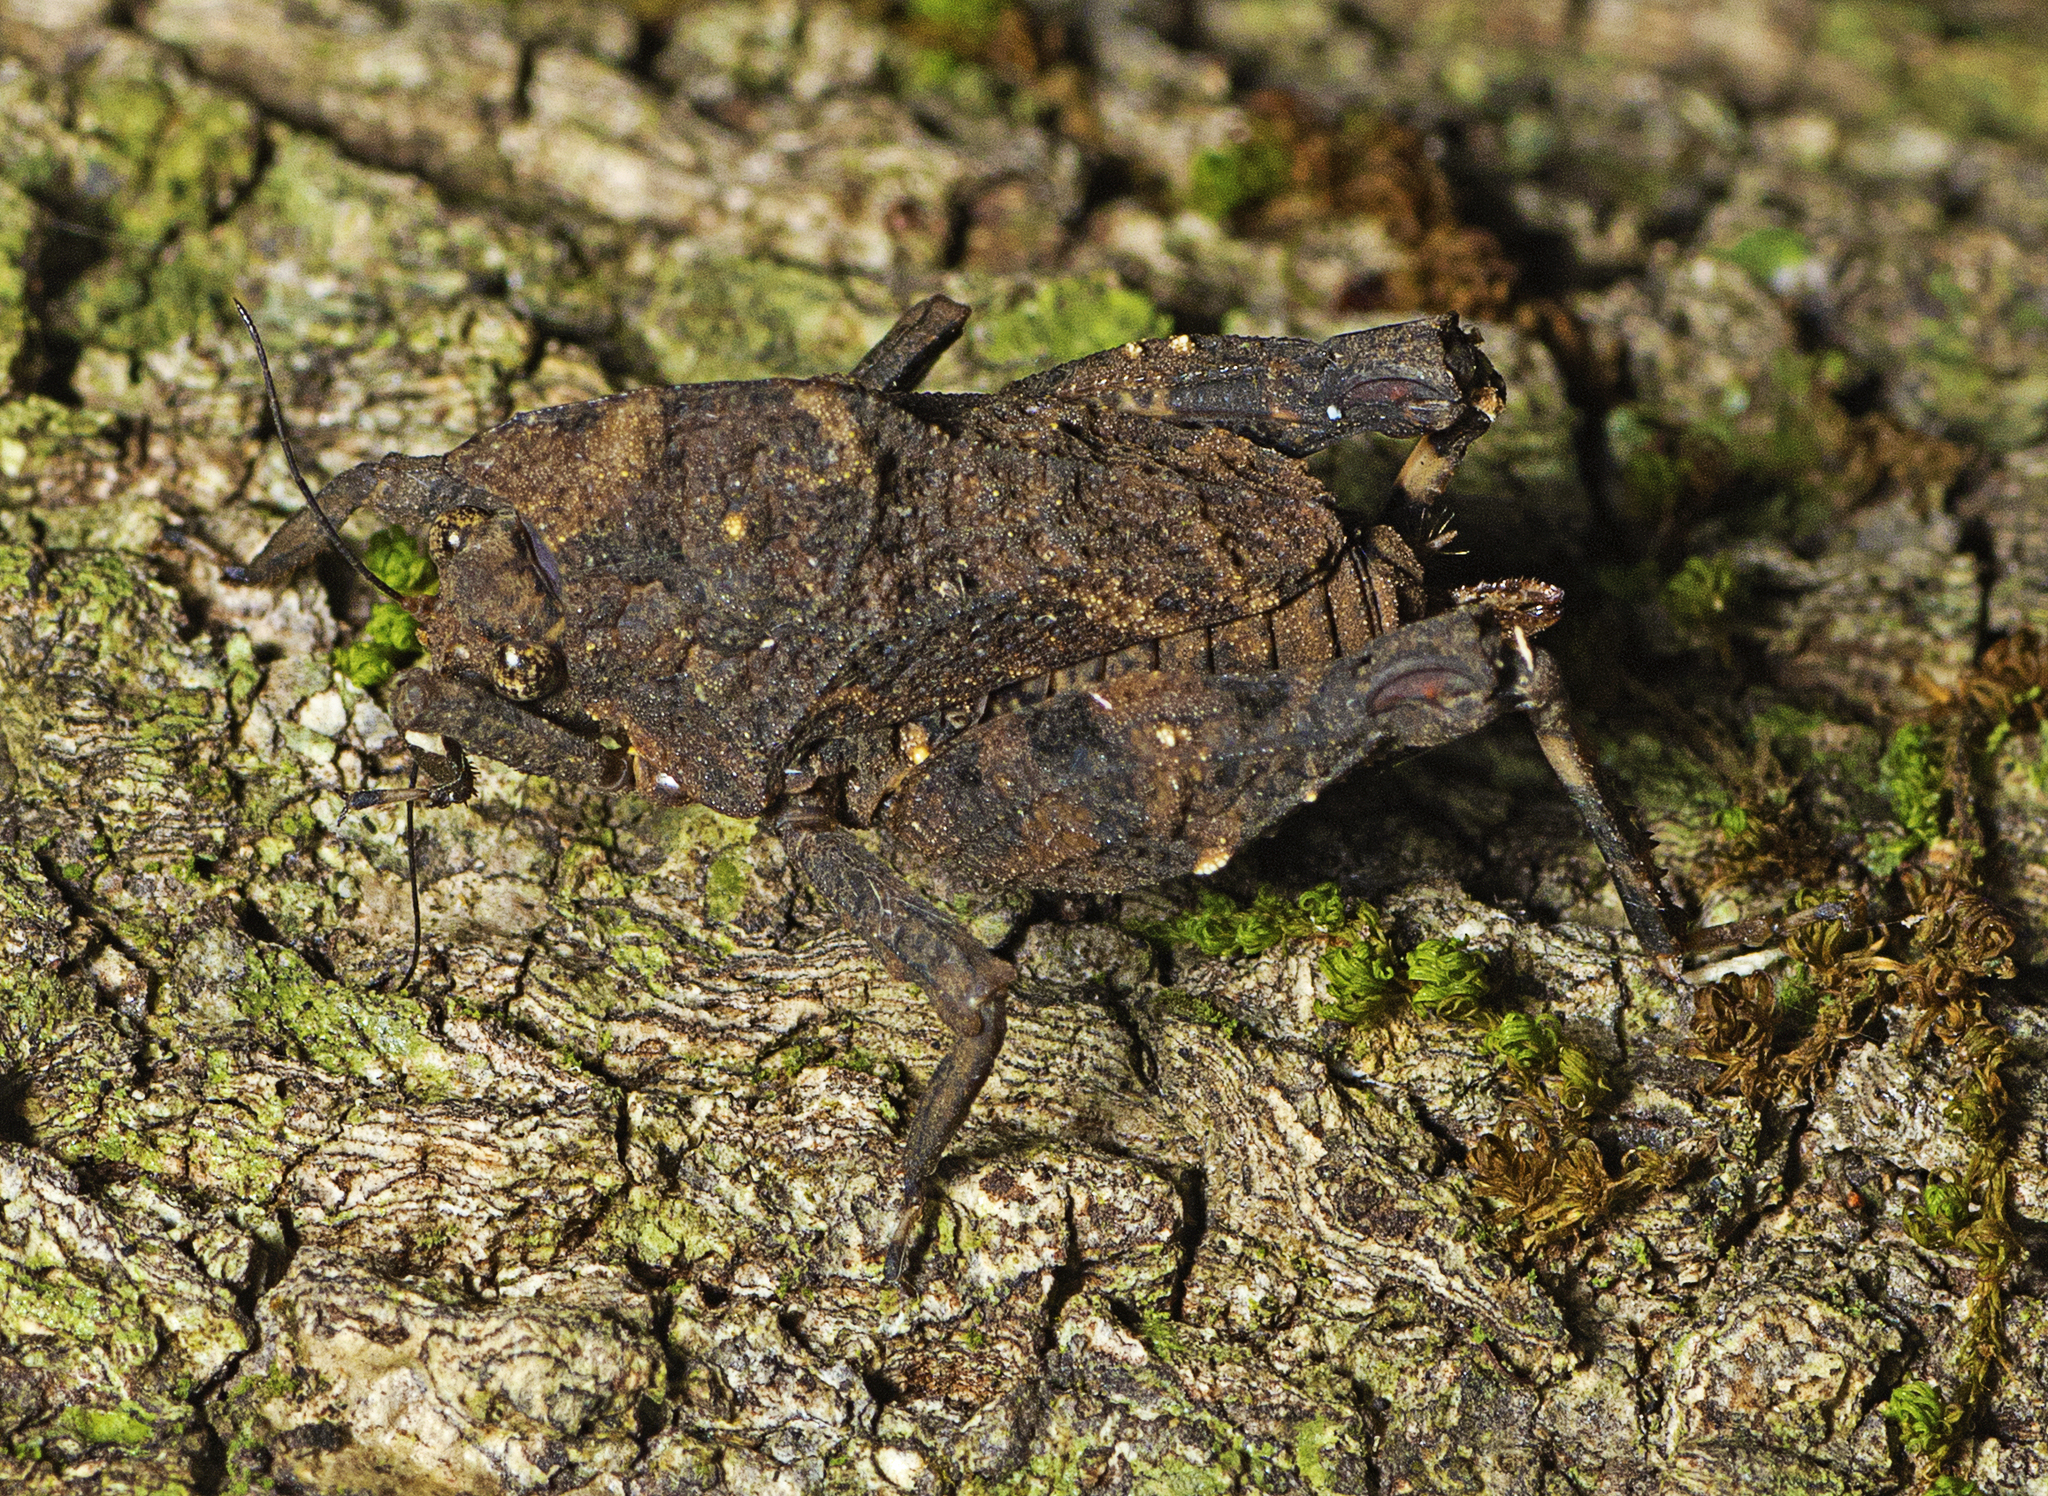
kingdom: Animalia
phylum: Arthropoda
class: Insecta
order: Orthoptera
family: Tetrigidae
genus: Vingselina
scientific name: Vingselina crassa
